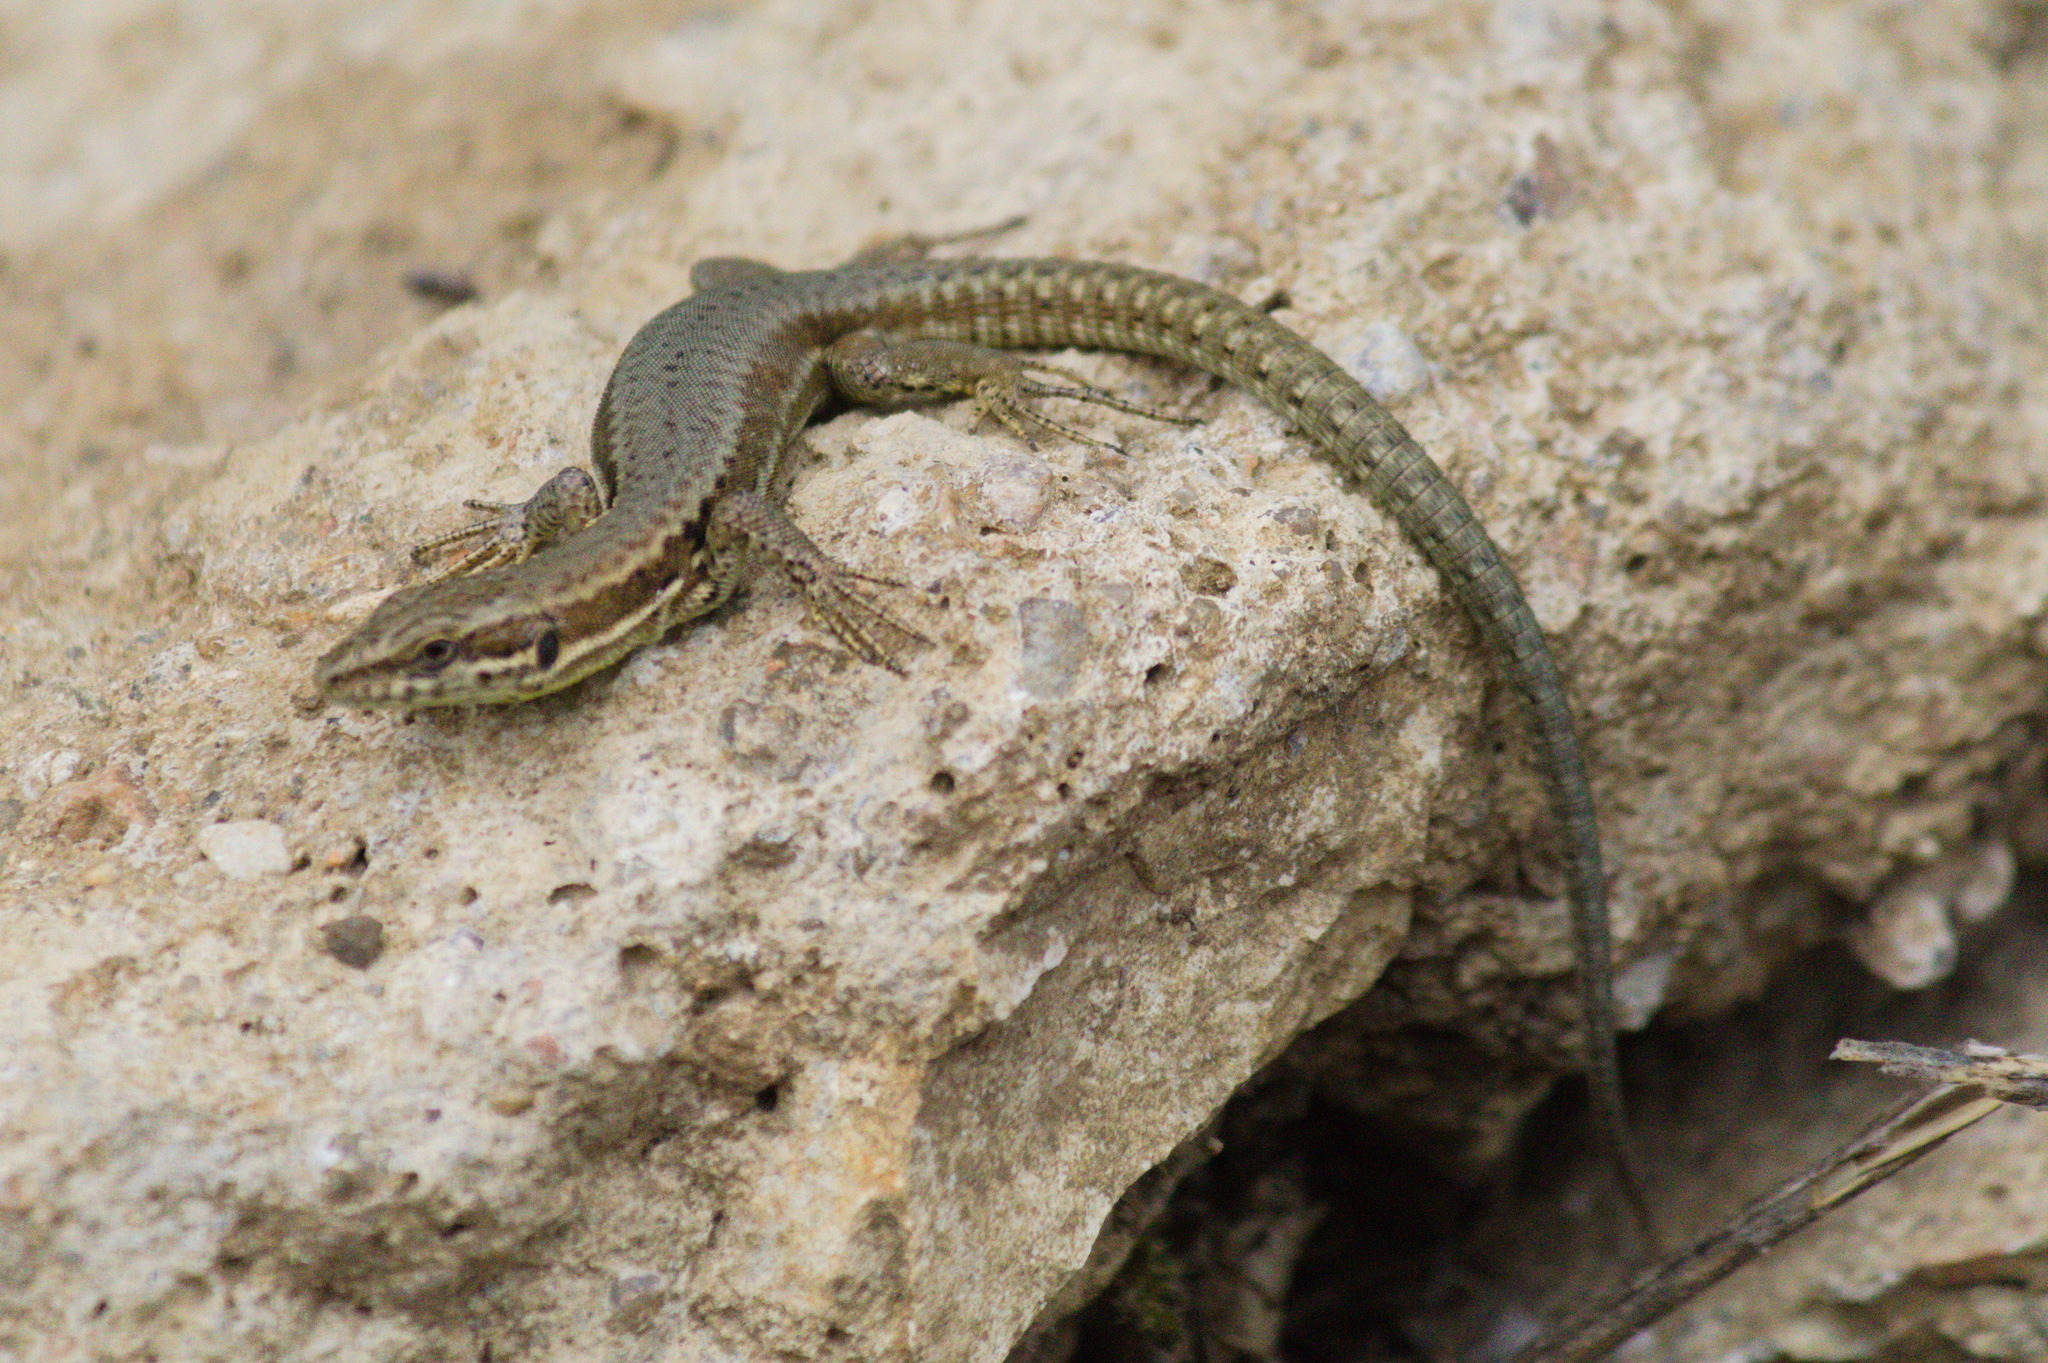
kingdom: Animalia
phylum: Chordata
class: Squamata
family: Lacertidae
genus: Podarcis
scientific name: Podarcis muralis
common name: Common wall lizard
